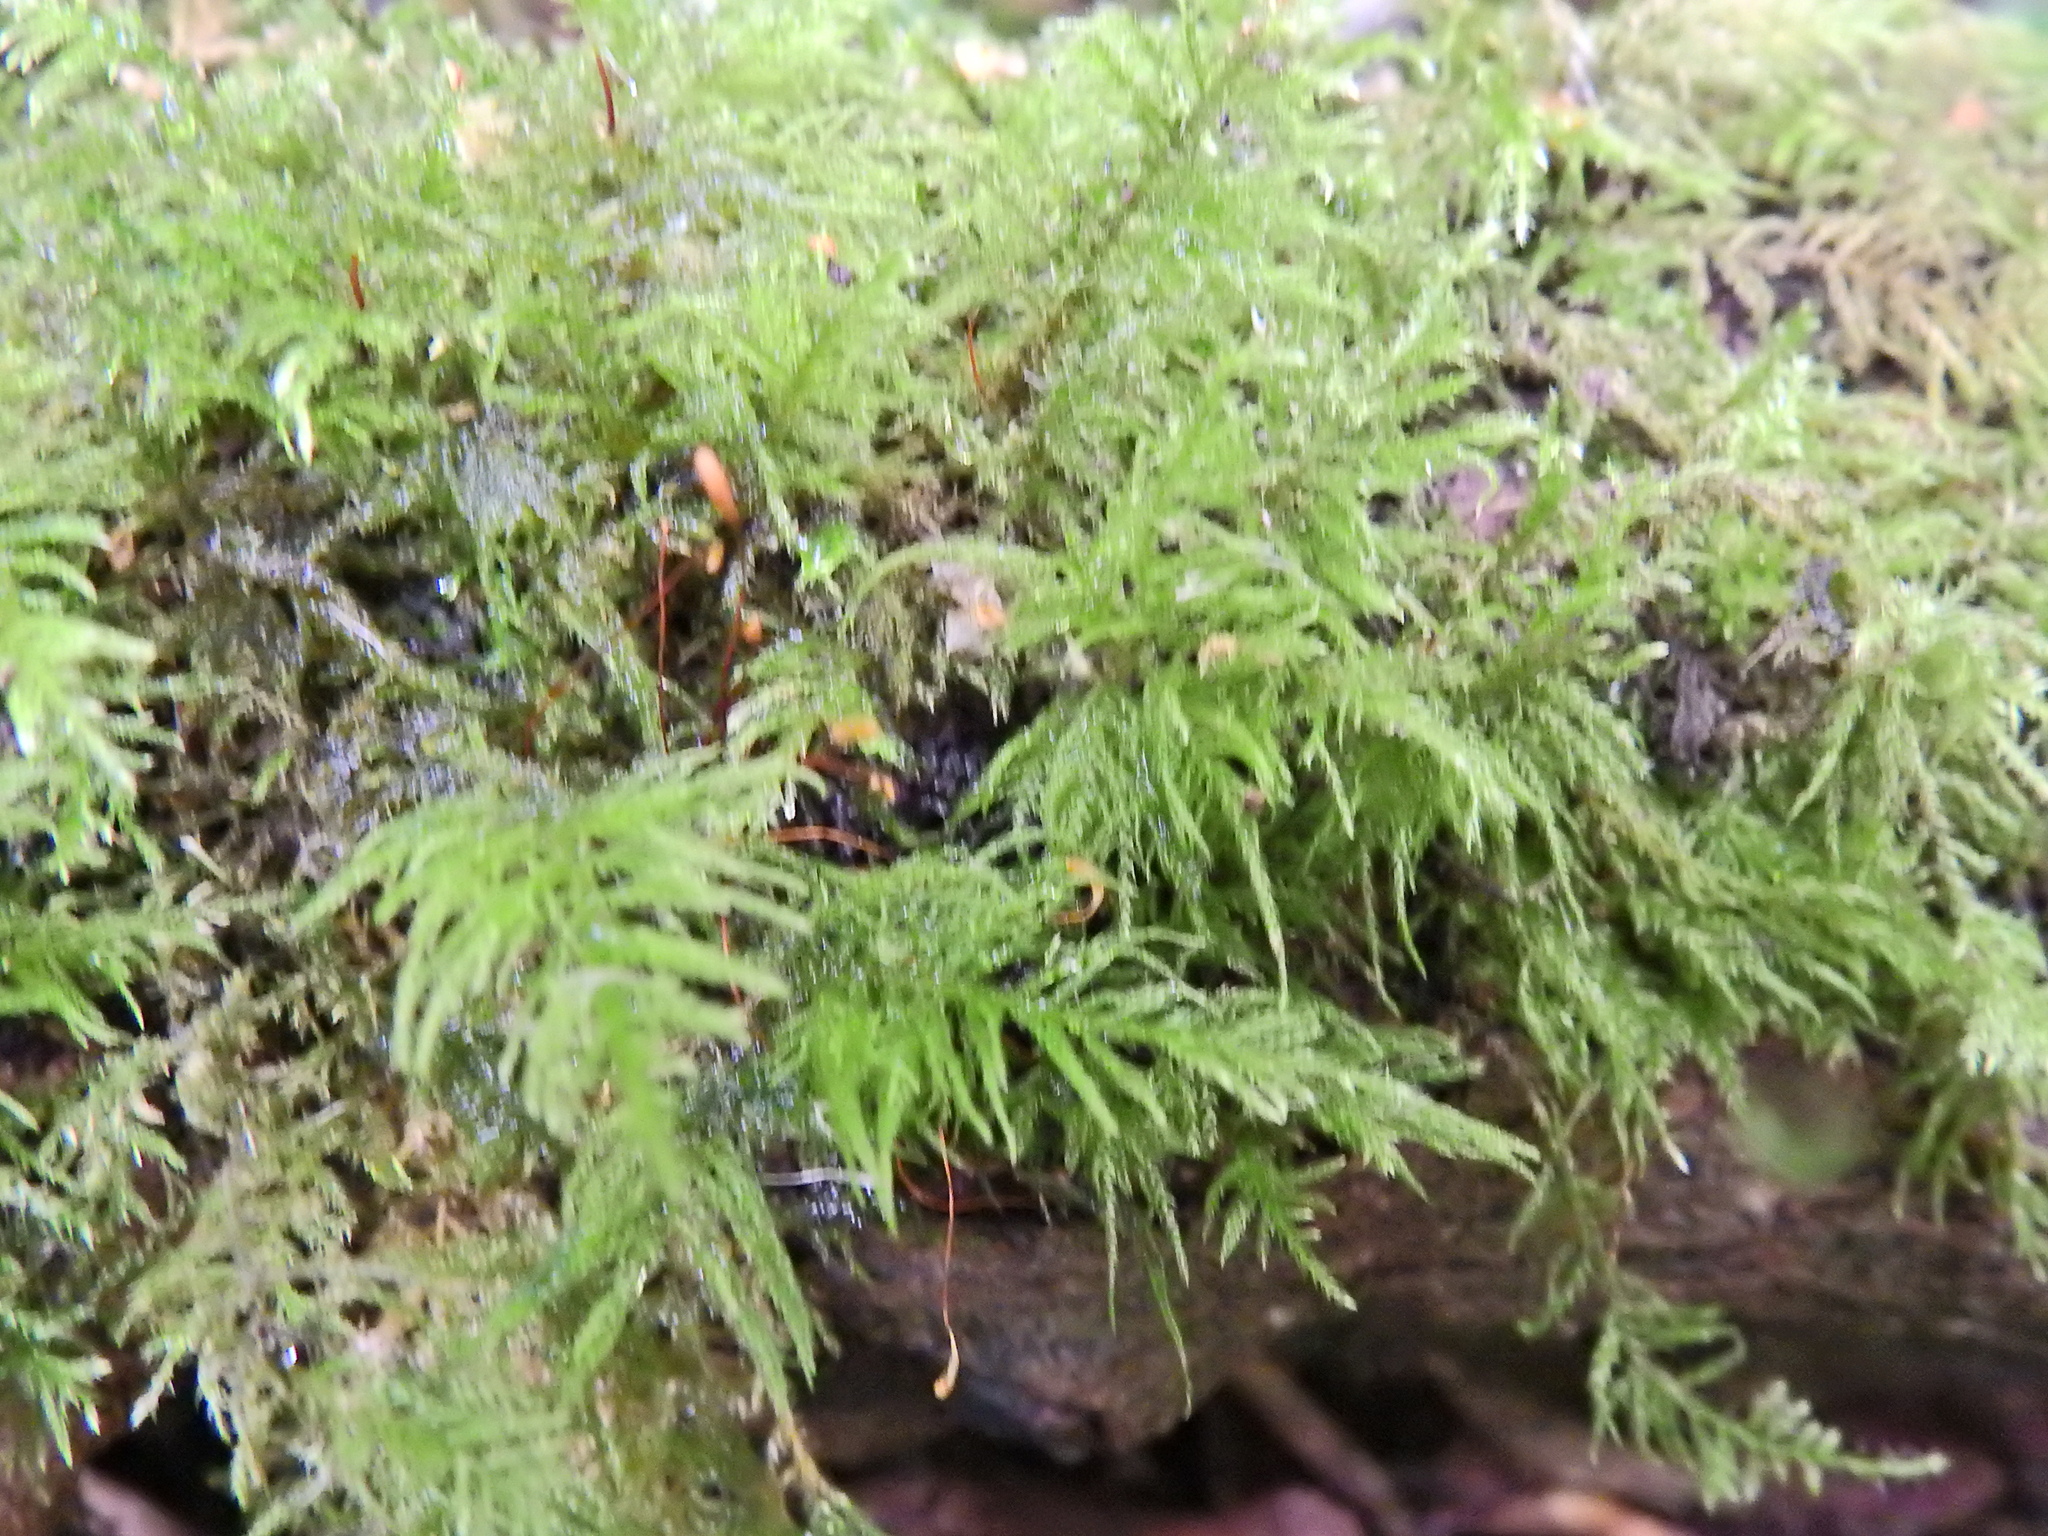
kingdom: Plantae
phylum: Bryophyta
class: Bryopsida
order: Hypnales
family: Brachytheciaceae
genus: Kindbergia
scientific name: Kindbergia praelonga
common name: Slender beaked moss
